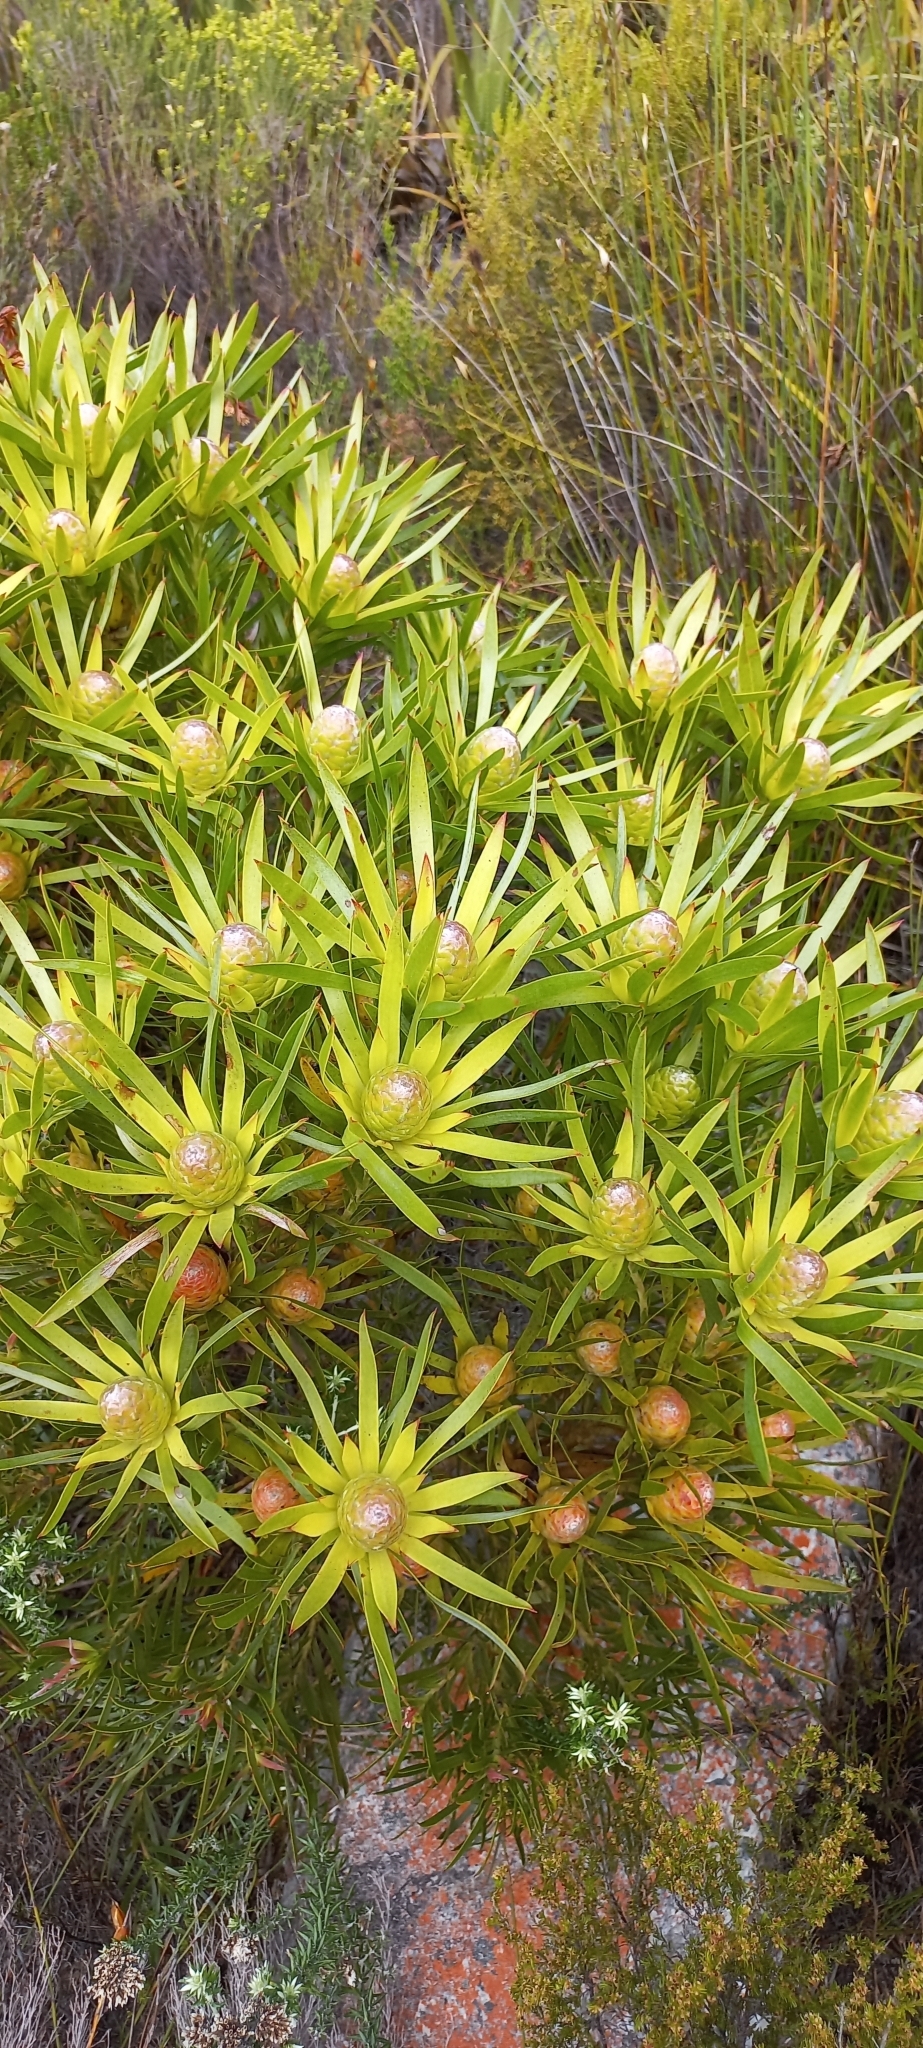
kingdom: Plantae
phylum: Tracheophyta
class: Magnoliopsida
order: Proteales
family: Proteaceae
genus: Leucadendron
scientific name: Leucadendron xanthoconus
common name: Sickle-leaf conebush
